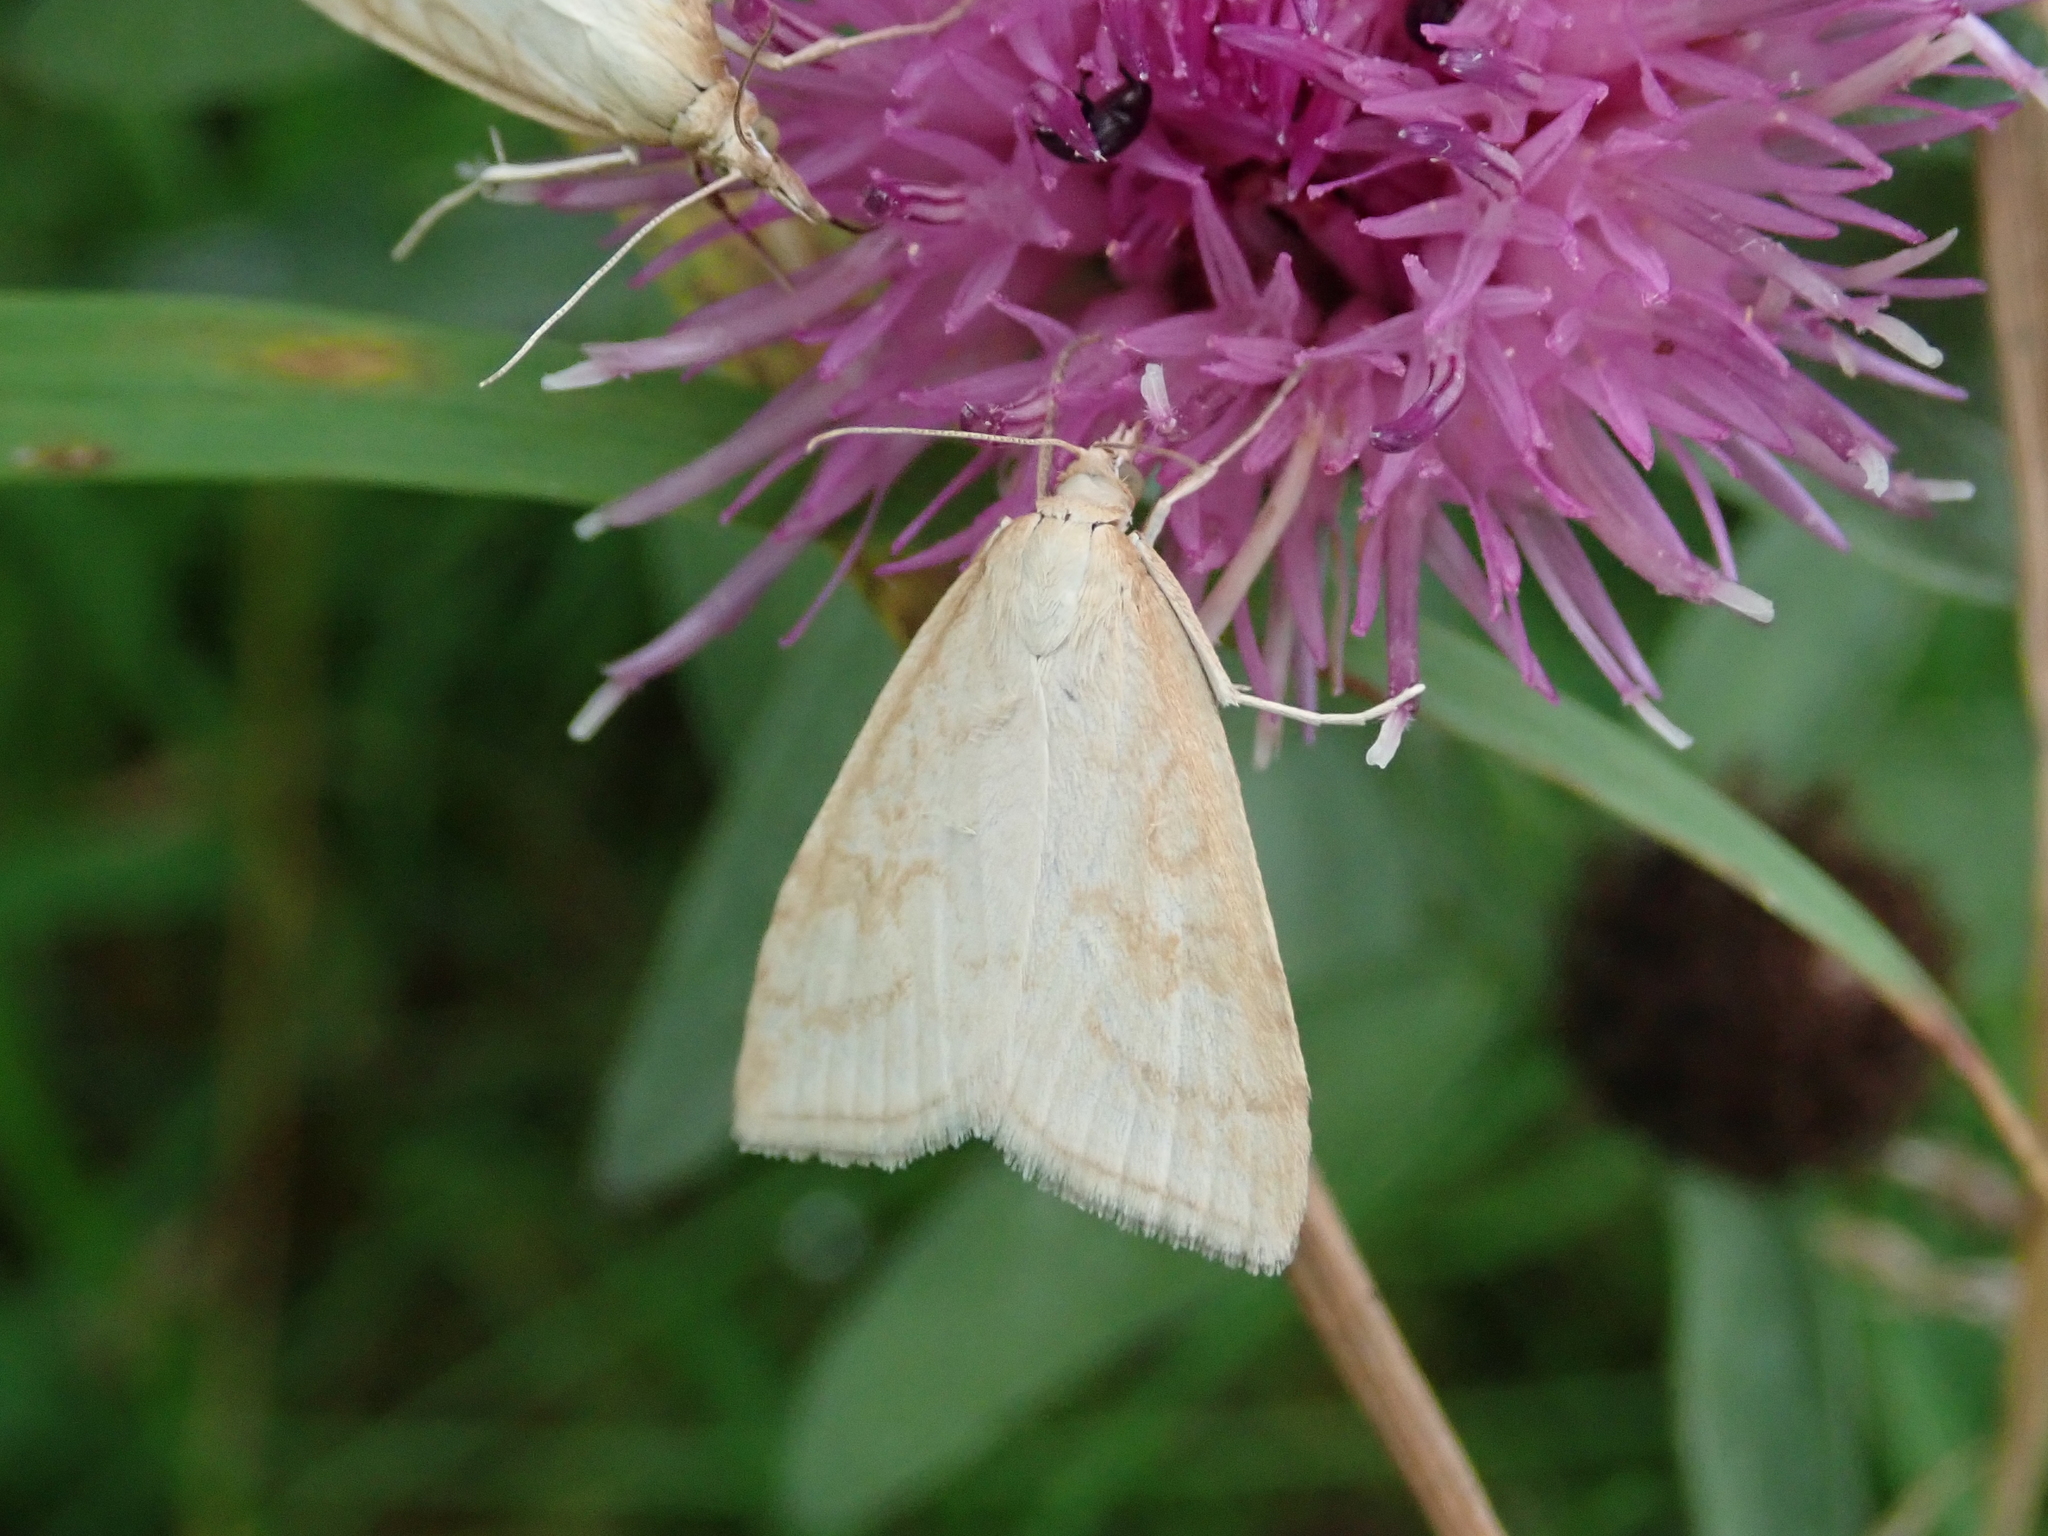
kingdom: Animalia
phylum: Arthropoda
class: Insecta
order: Lepidoptera
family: Crambidae
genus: Udea
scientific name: Udea lutealis
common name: Pale straw pearl
